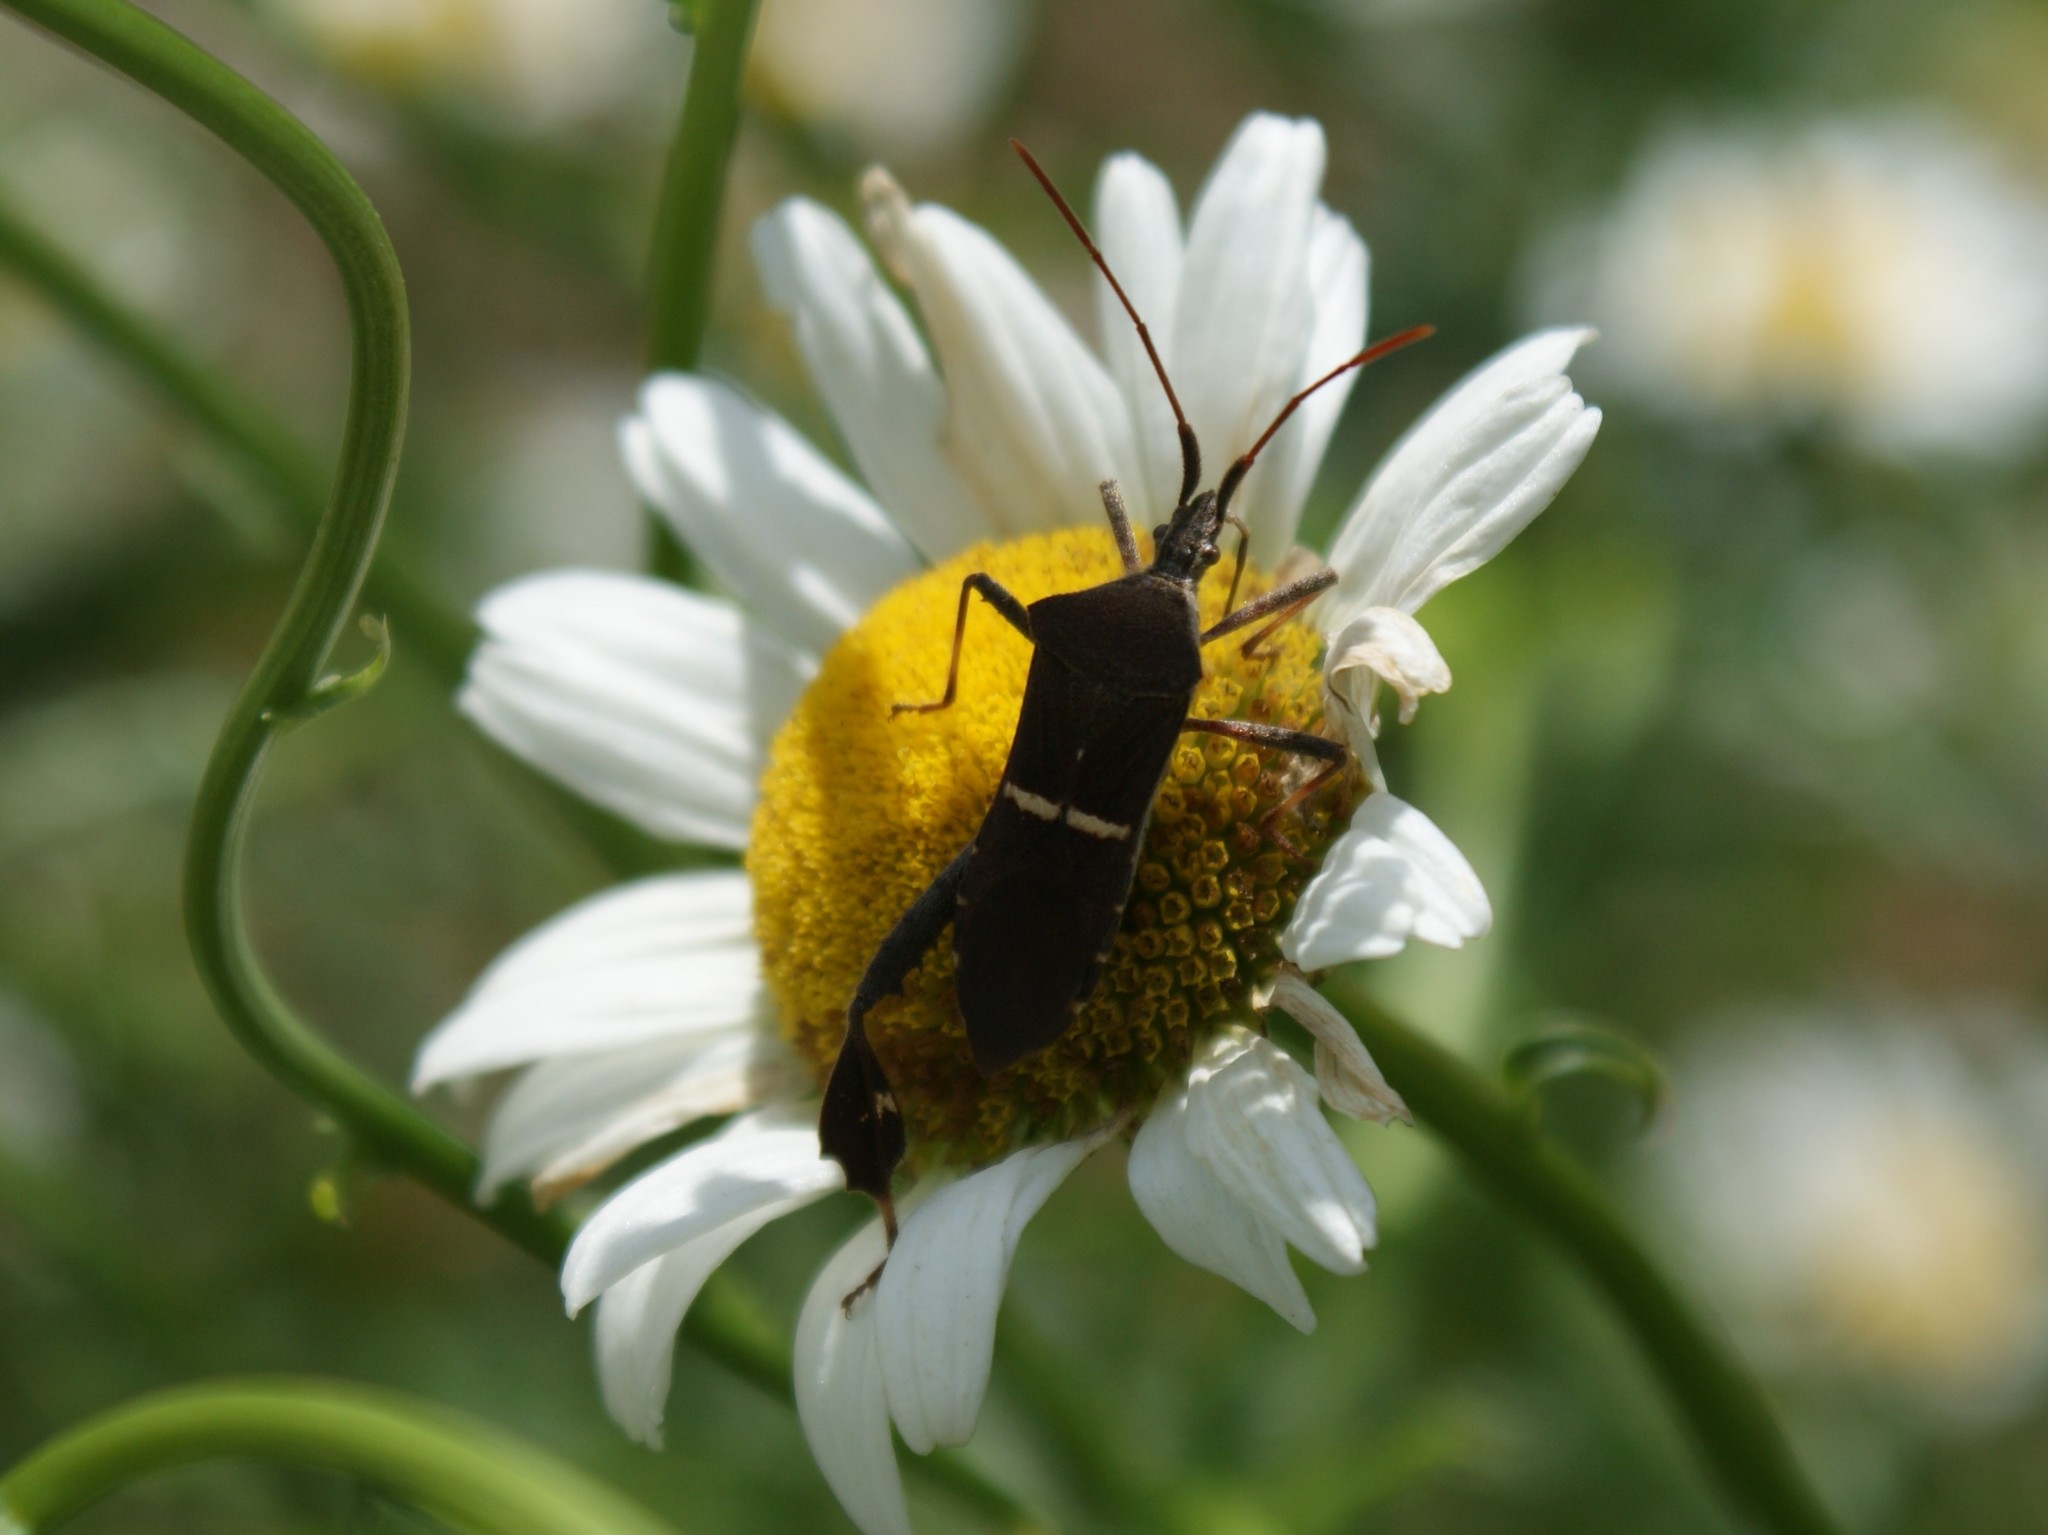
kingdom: Animalia
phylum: Arthropoda
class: Insecta
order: Hemiptera
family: Coreidae
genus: Leptoglossus
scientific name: Leptoglossus phyllopus
